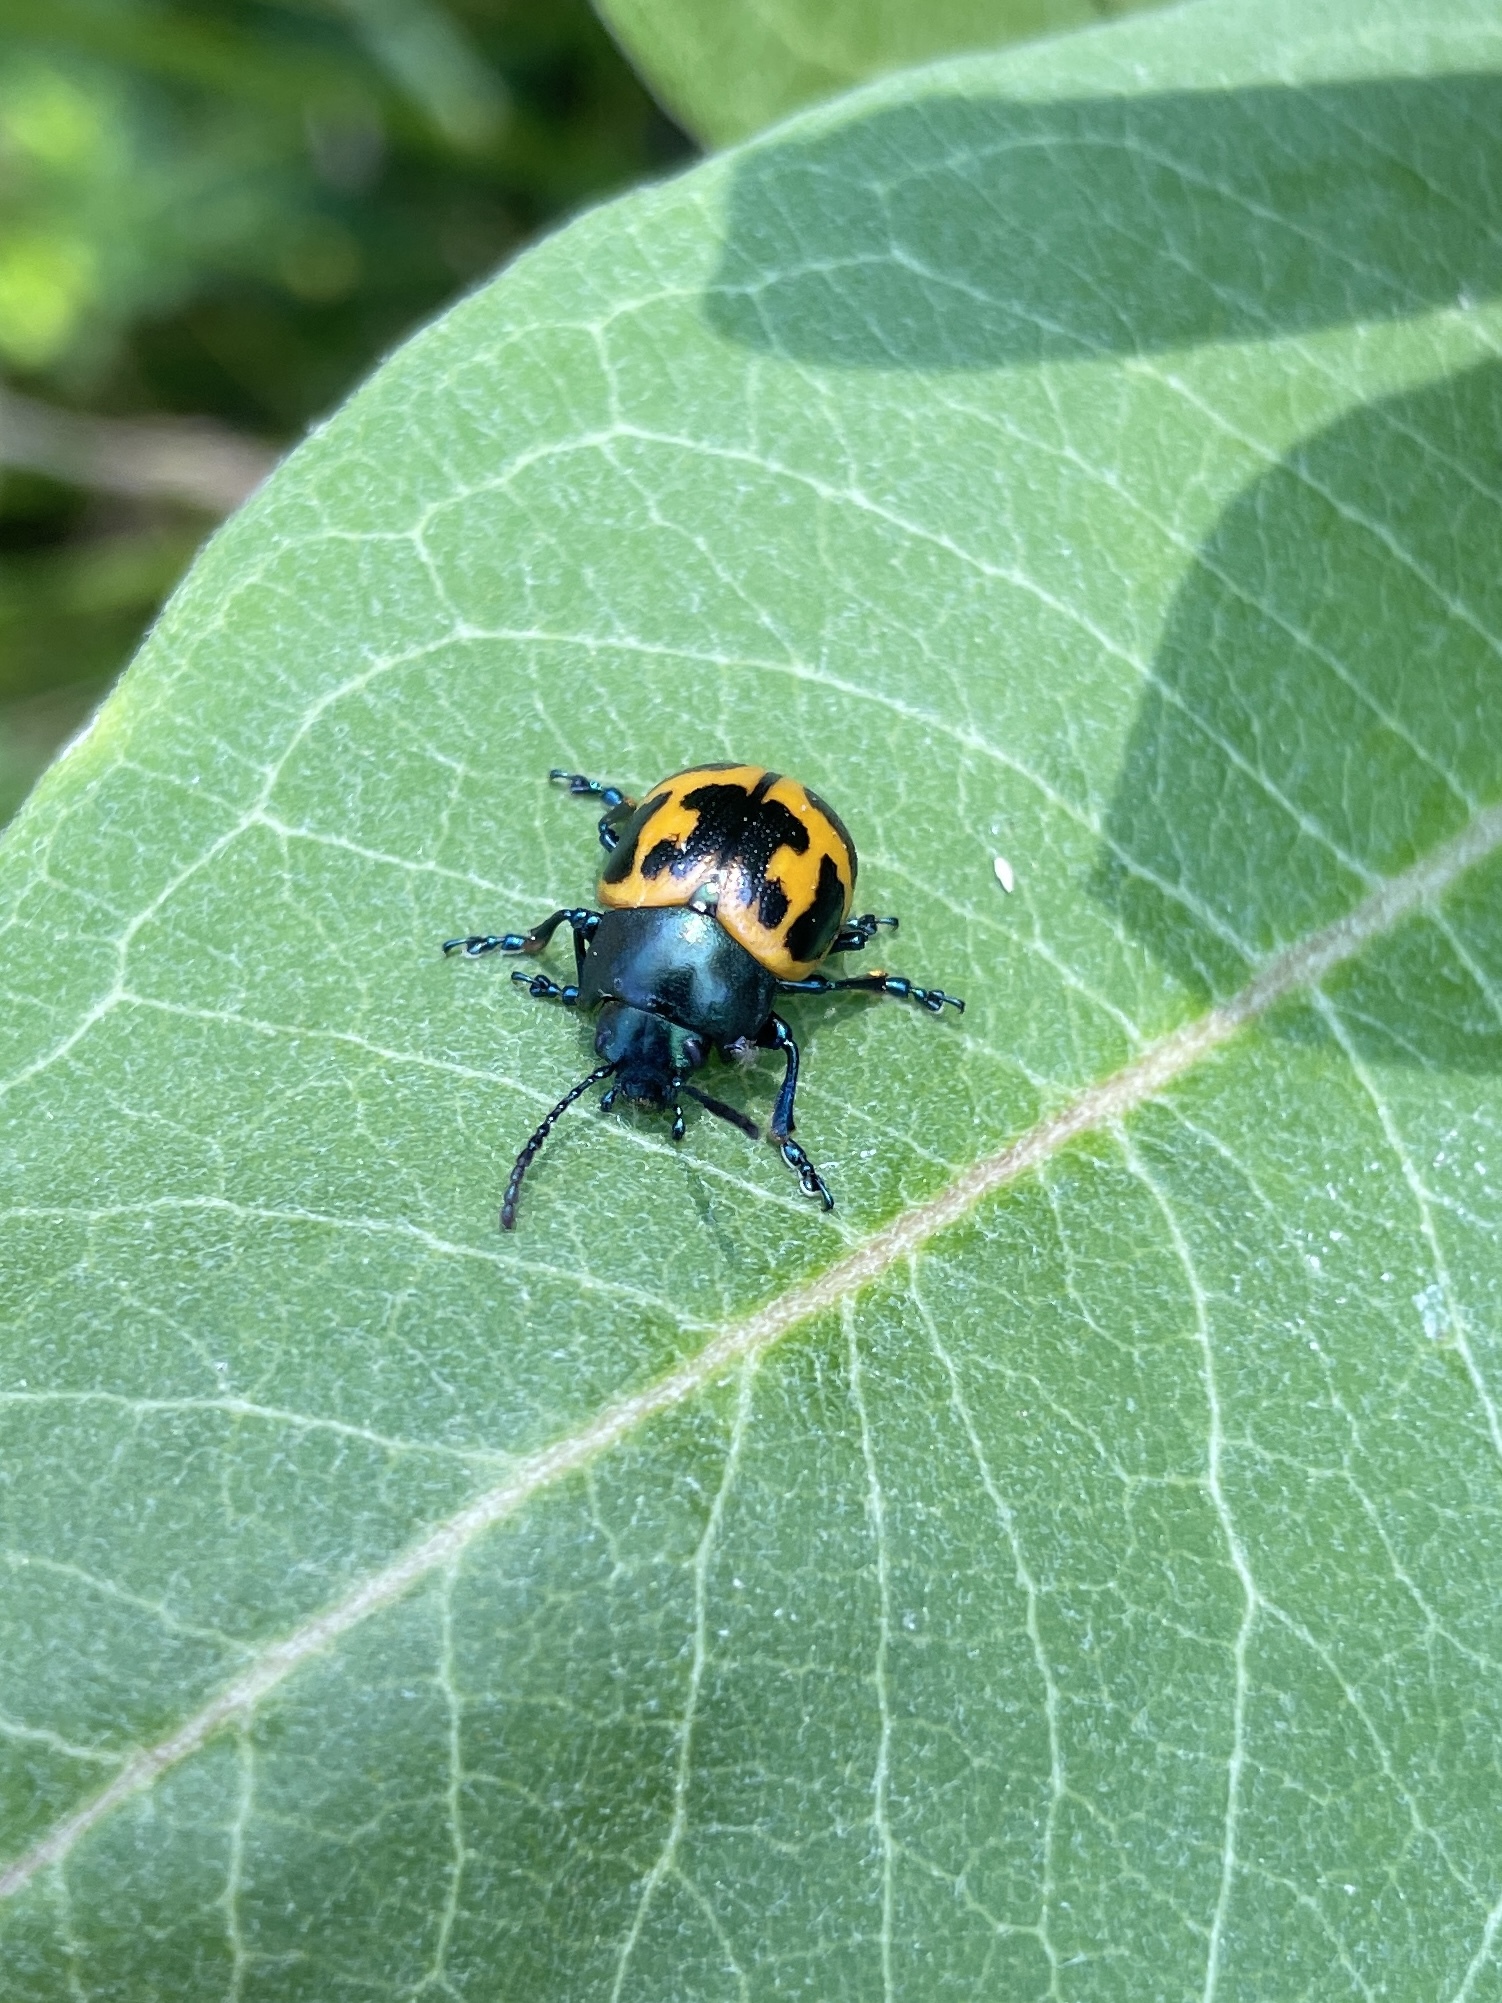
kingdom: Animalia
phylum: Arthropoda
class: Insecta
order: Coleoptera
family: Chrysomelidae
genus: Labidomera
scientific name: Labidomera clivicollis
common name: Swamp milkweed leaf beetle
